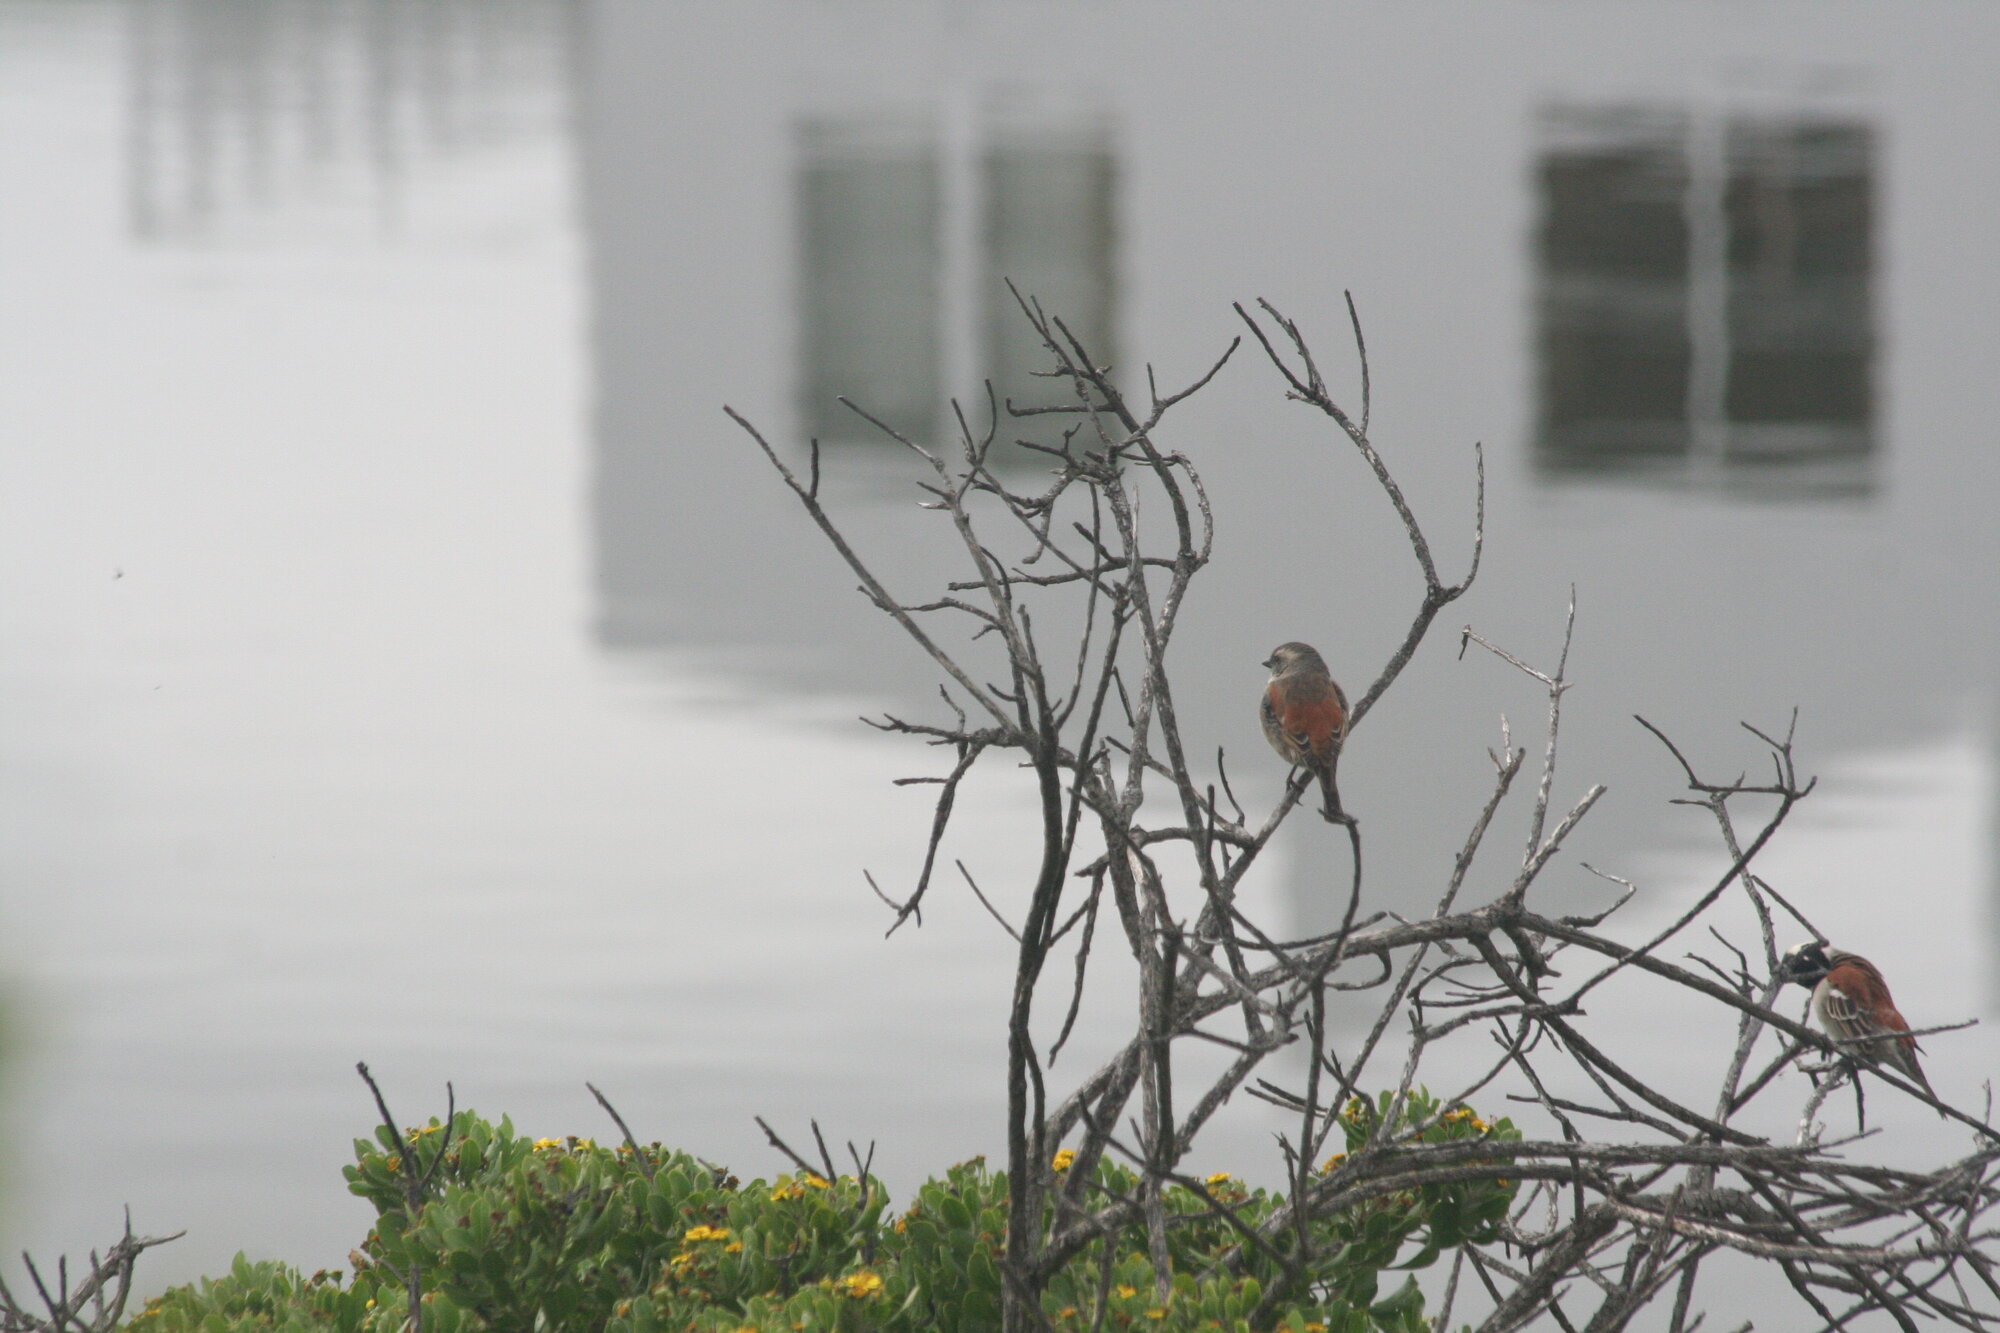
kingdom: Animalia
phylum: Chordata
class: Aves
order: Passeriformes
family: Passeridae
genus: Passer
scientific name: Passer melanurus
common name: Cape sparrow
